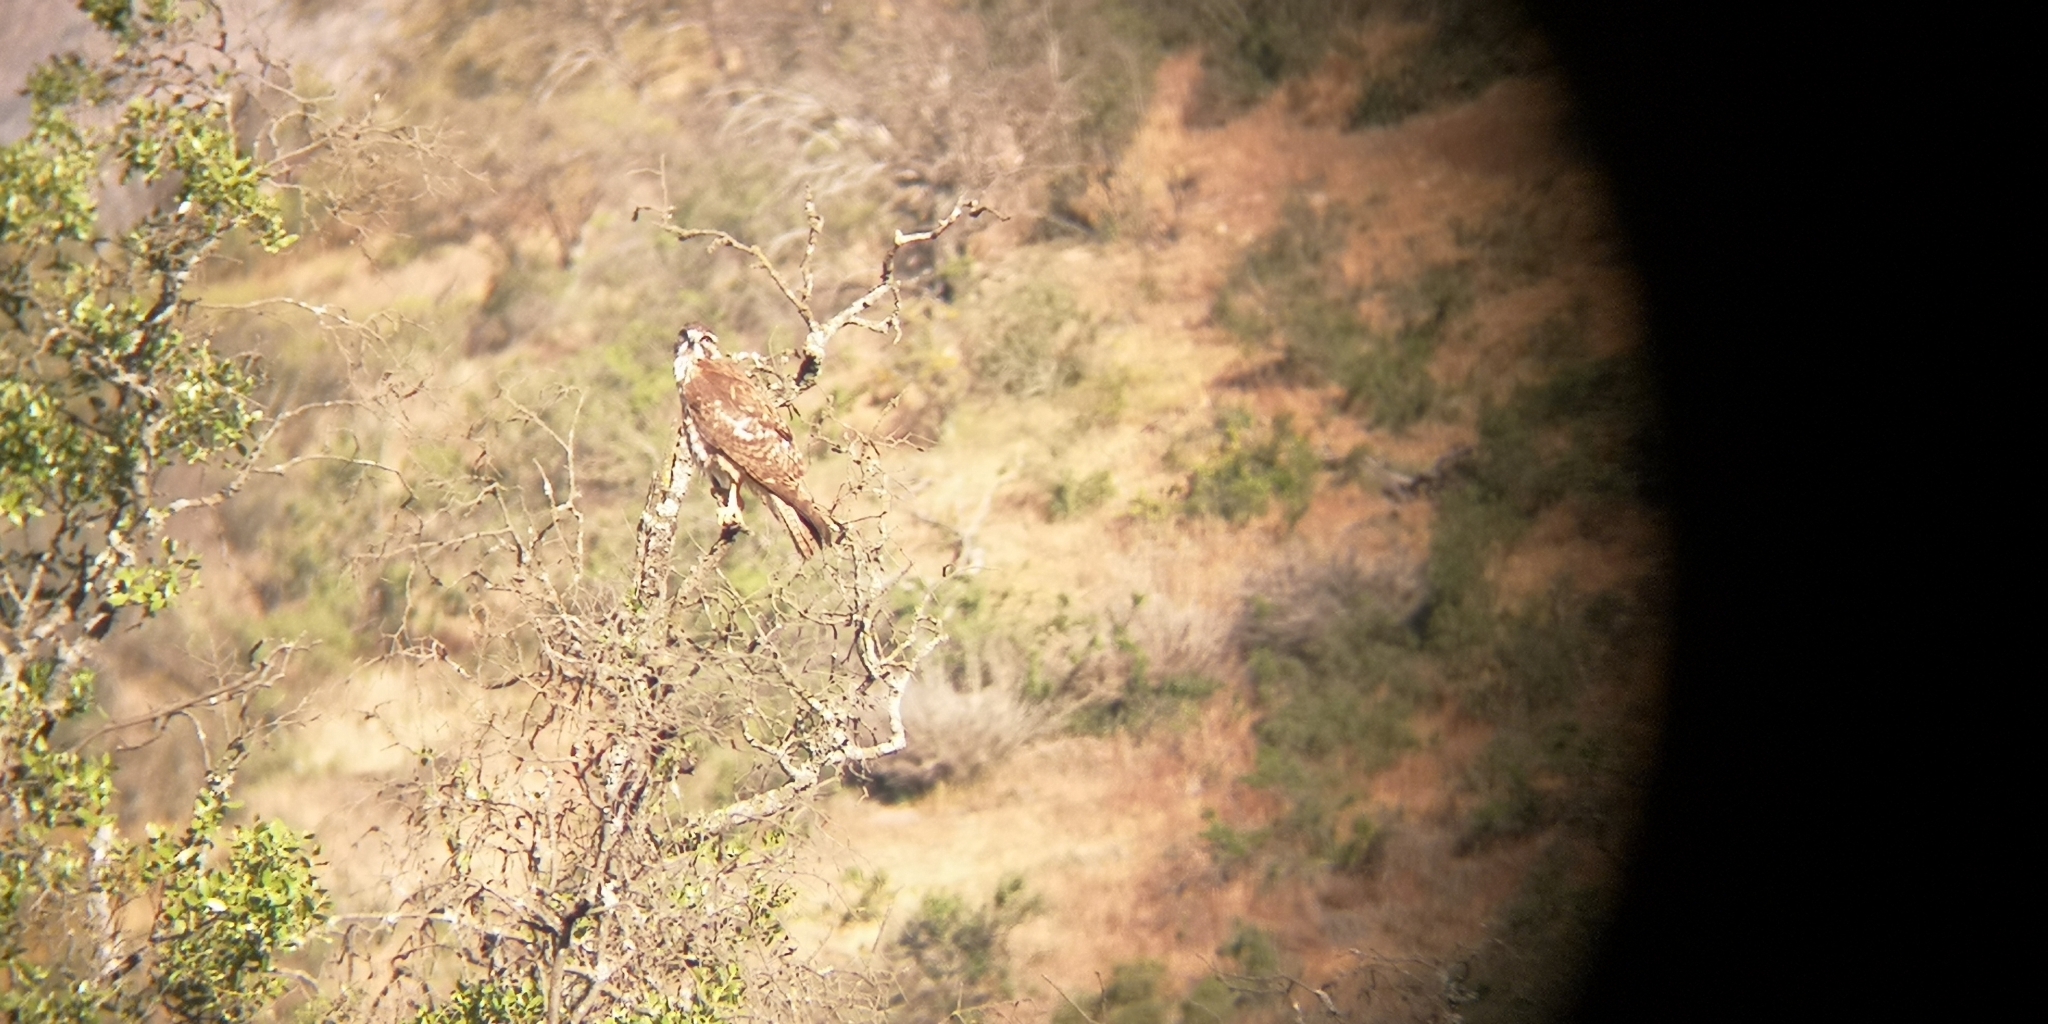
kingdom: Animalia
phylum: Chordata
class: Aves
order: Accipitriformes
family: Accipitridae
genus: Buteo
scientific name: Buteo polyosoma
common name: Variable hawk
